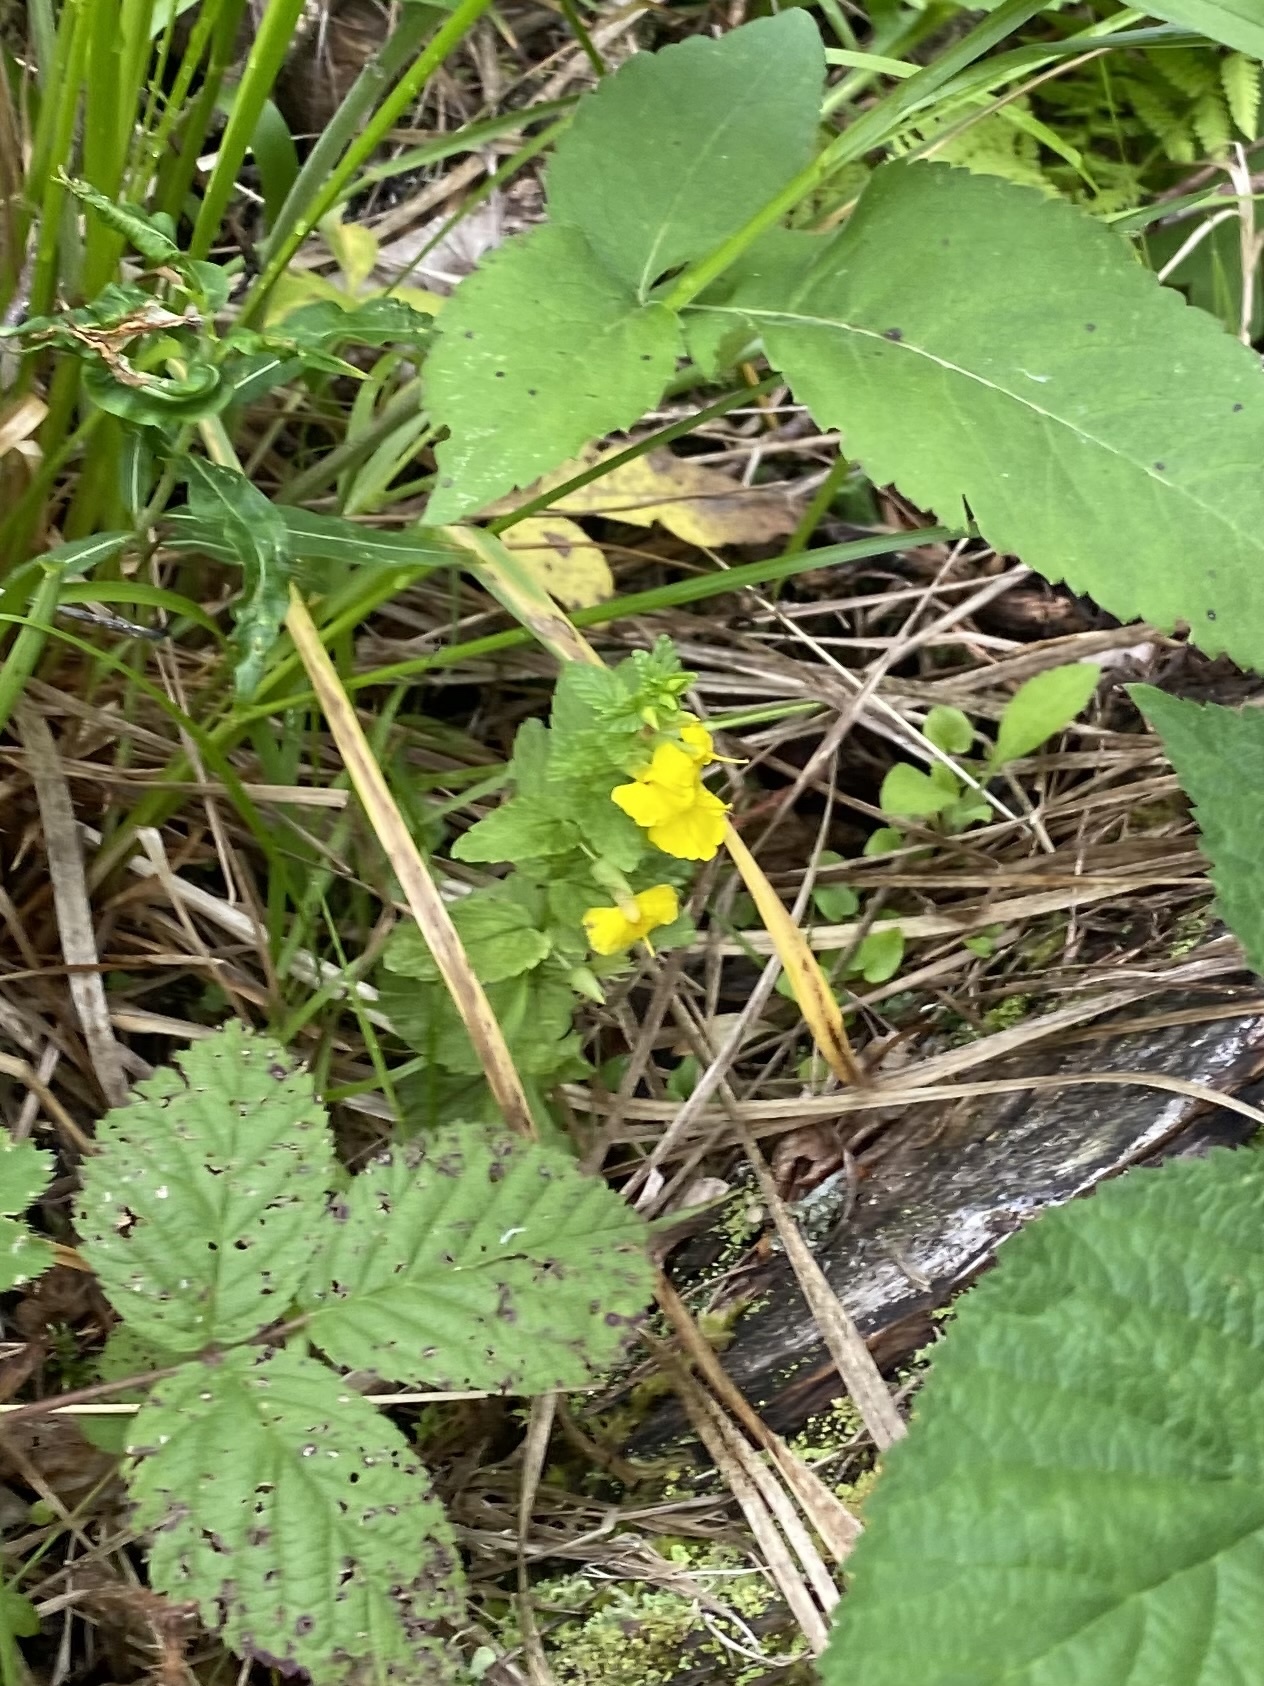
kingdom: Plantae
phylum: Tracheophyta
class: Magnoliopsida
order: Lamiales
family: Orobanchaceae
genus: Rhynchocorys
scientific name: Rhynchocorys elephas
